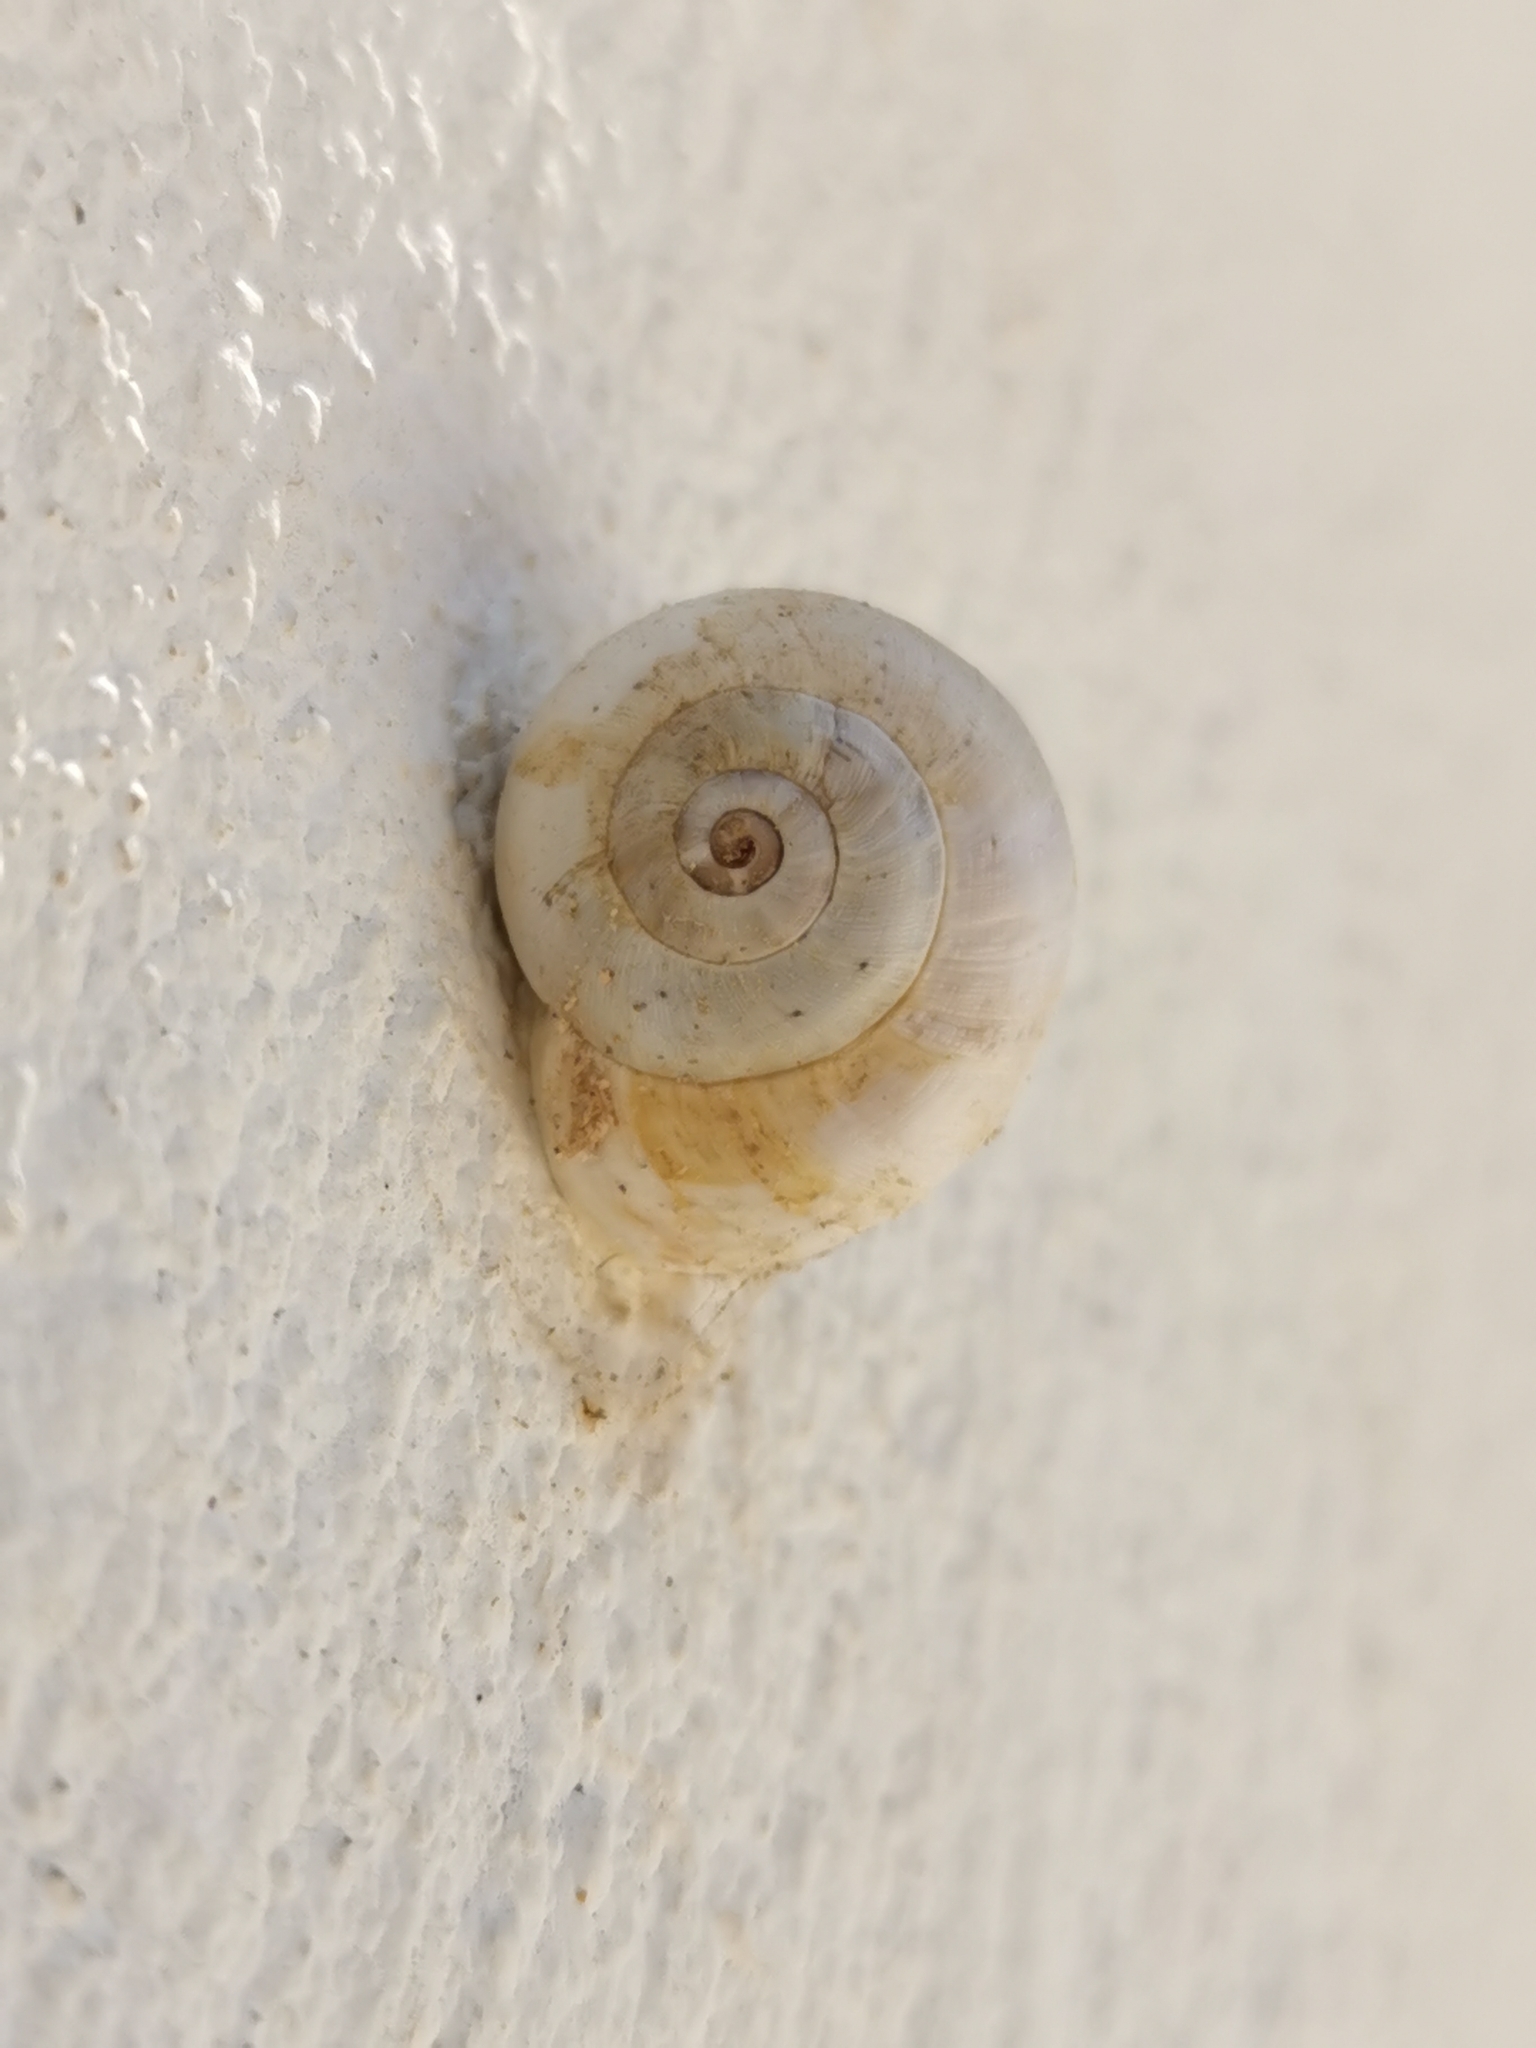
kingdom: Animalia
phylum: Mollusca
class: Gastropoda
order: Stylommatophora
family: Helicidae
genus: Theba
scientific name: Theba pisana
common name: White snail
